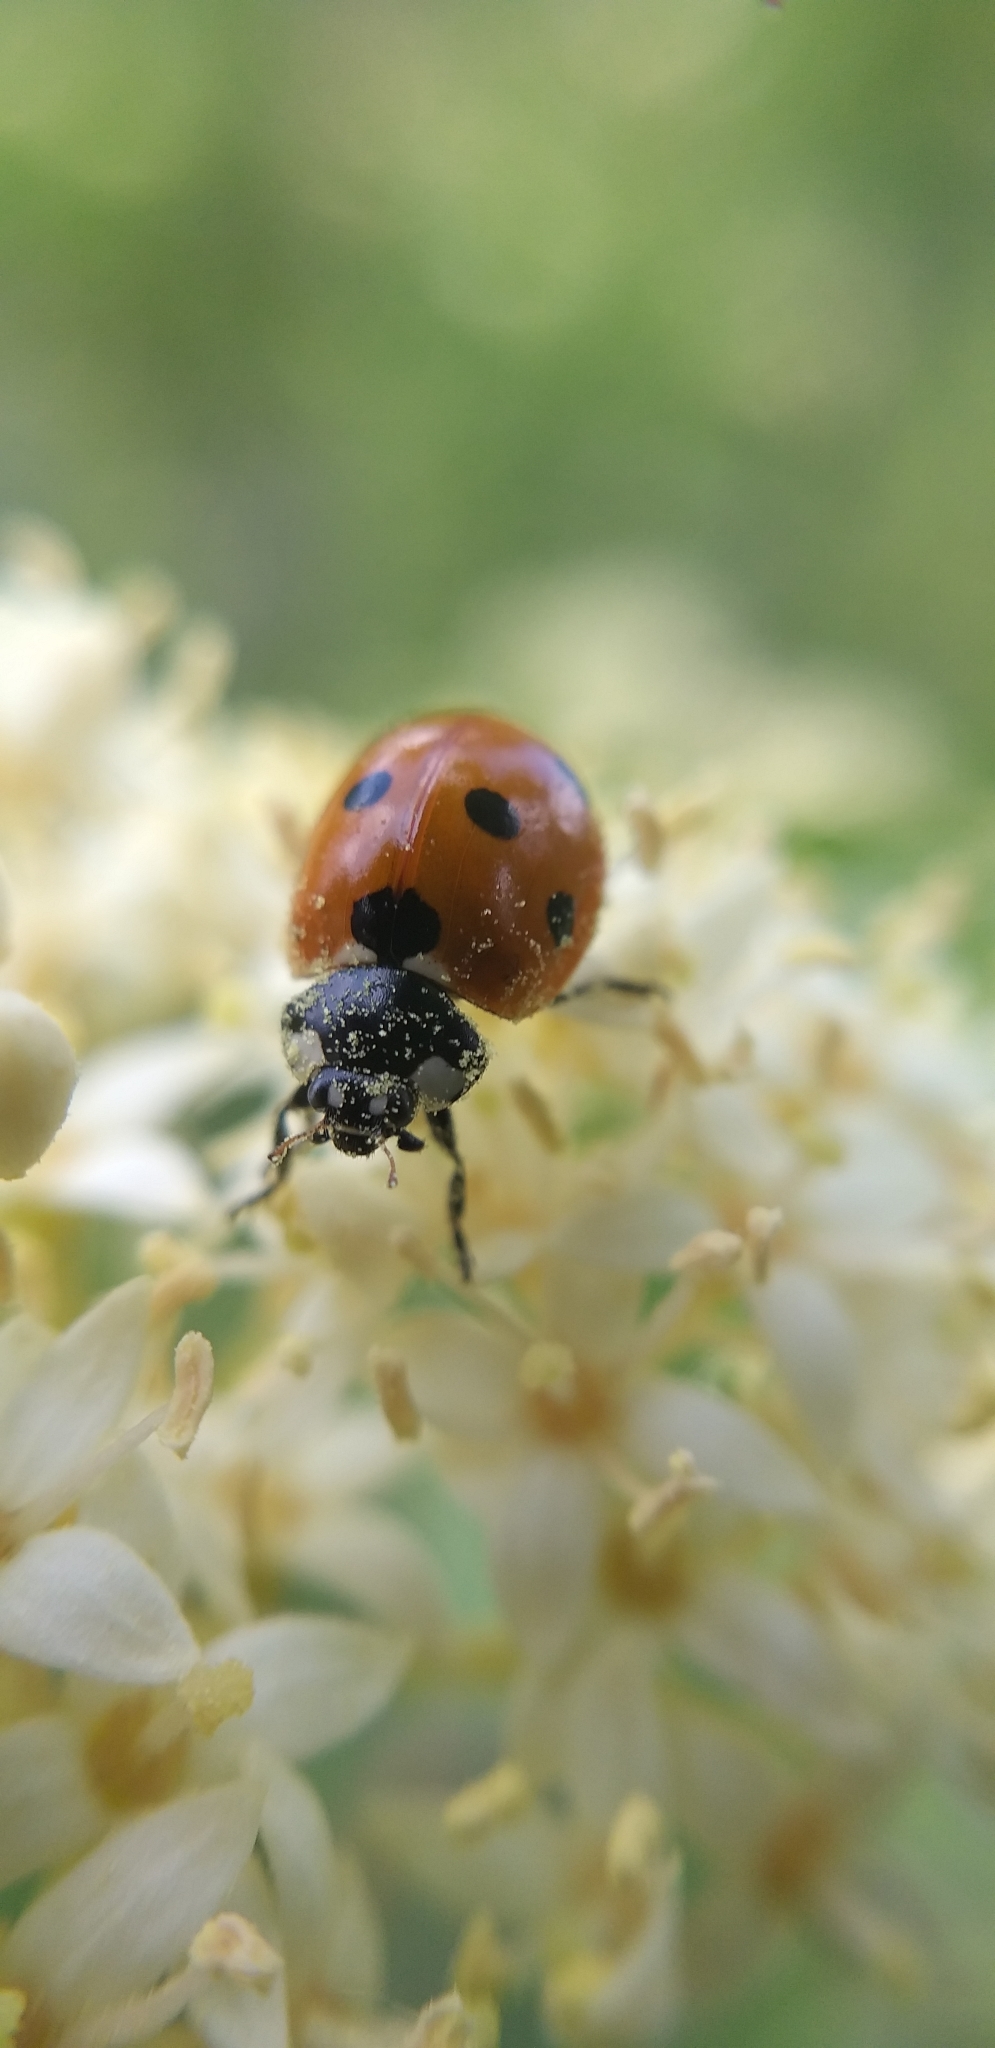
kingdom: Animalia
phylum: Arthropoda
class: Insecta
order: Coleoptera
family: Coccinellidae
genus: Coccinella
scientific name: Coccinella septempunctata
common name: Sevenspotted lady beetle
